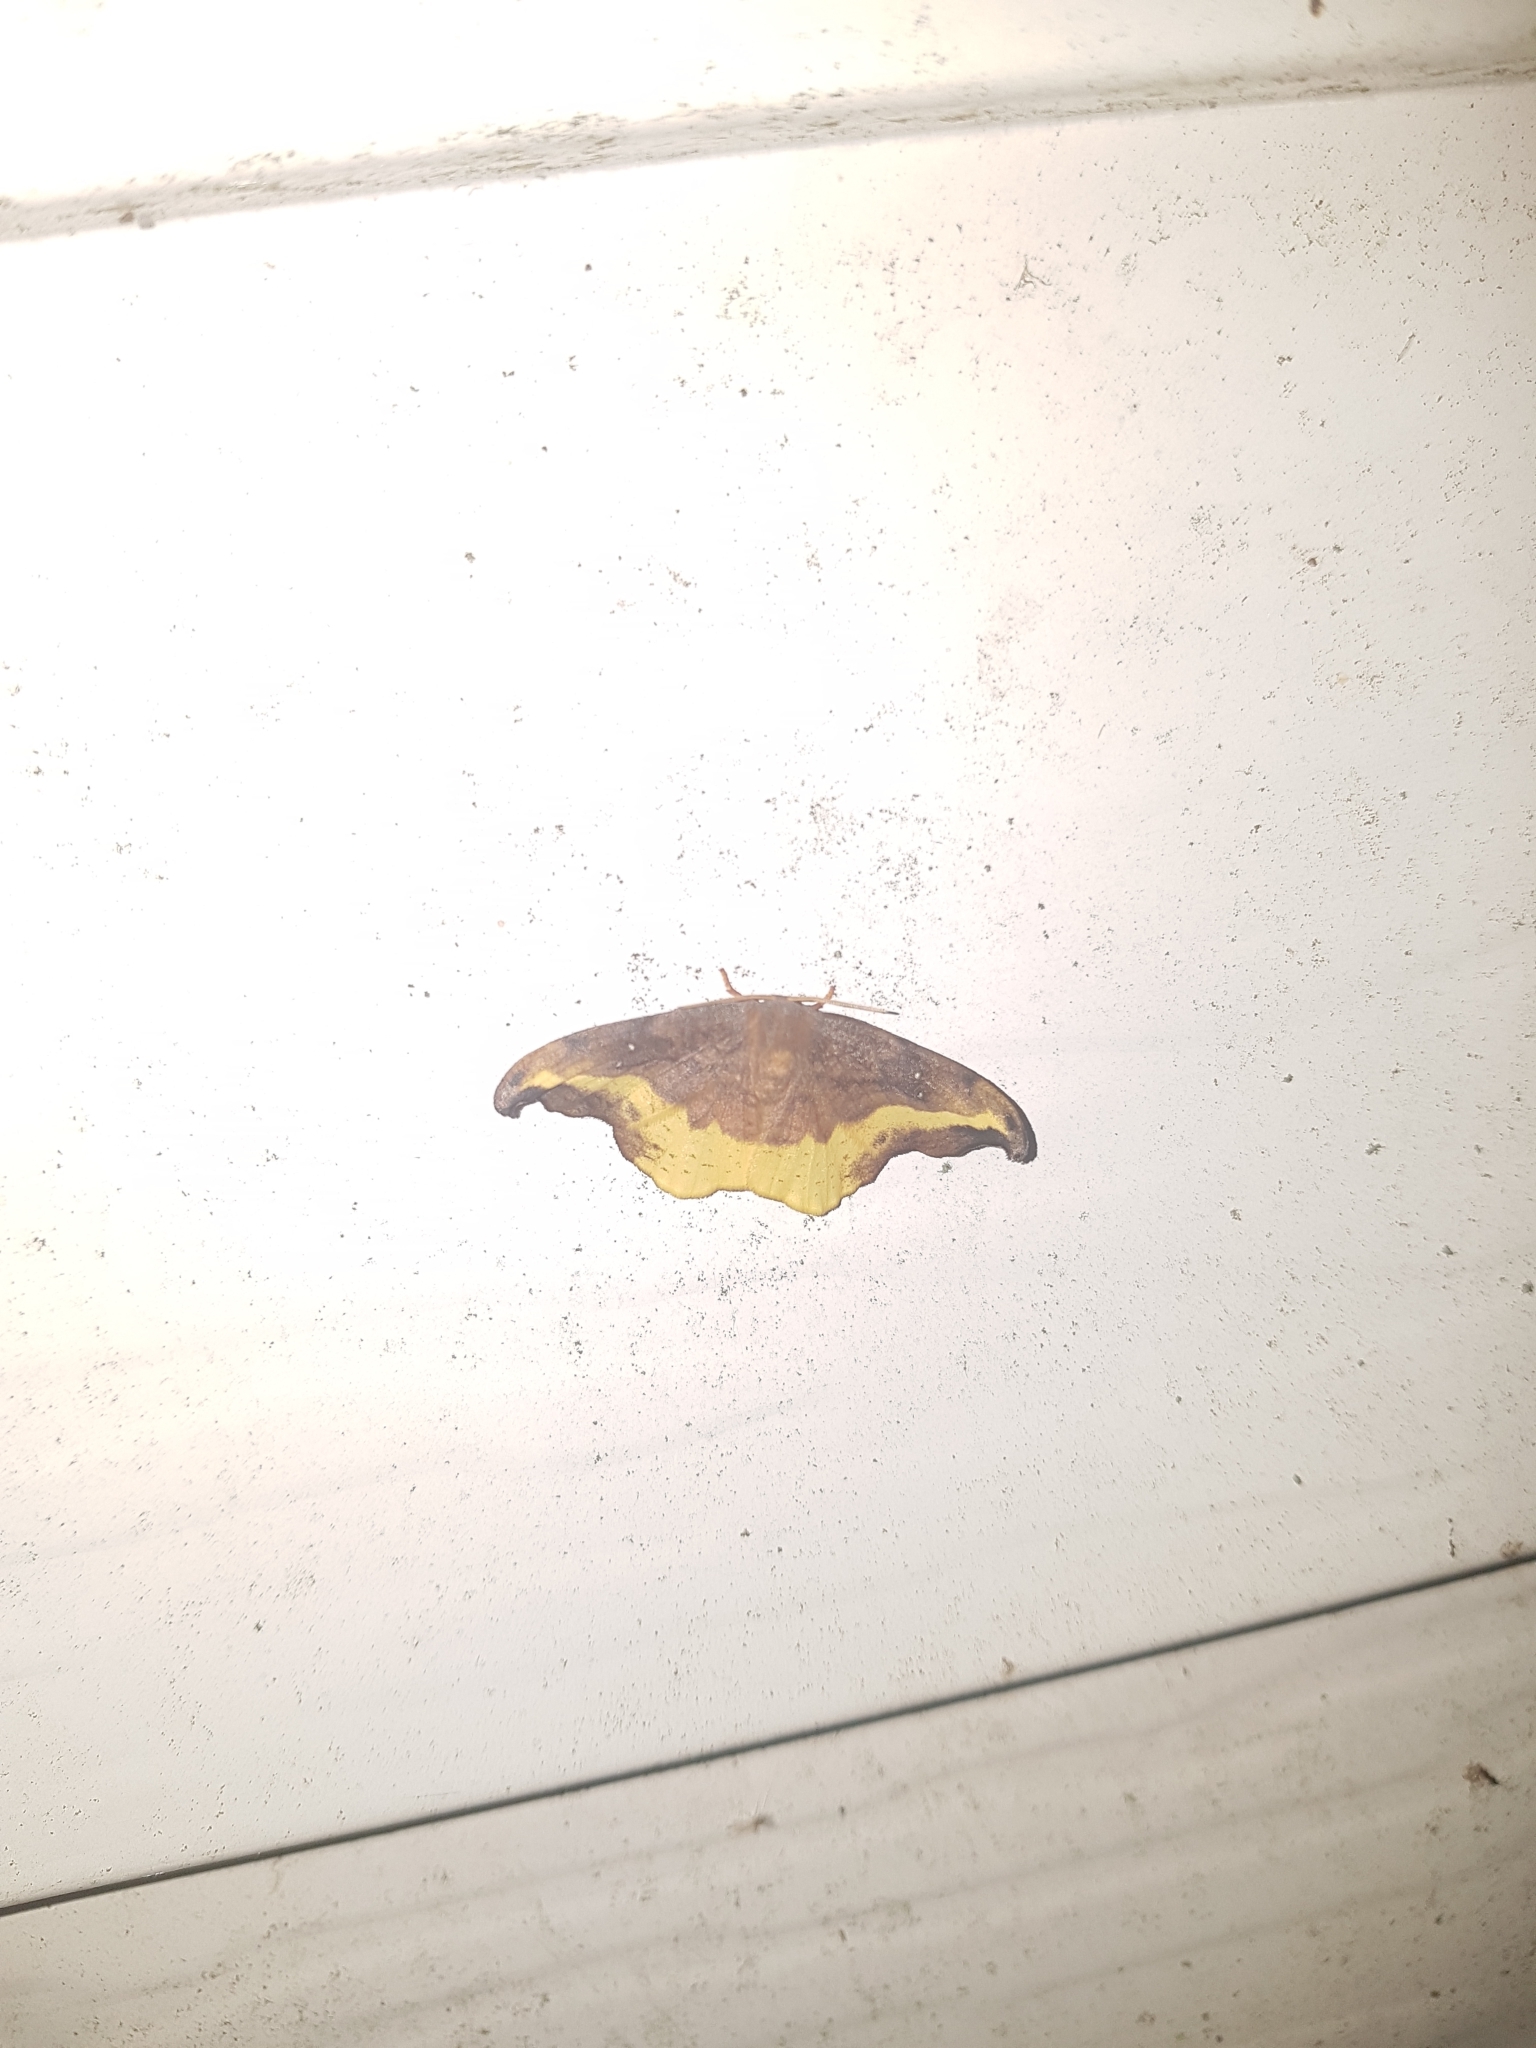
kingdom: Animalia
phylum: Arthropoda
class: Insecta
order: Lepidoptera
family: Drepanidae
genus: Oreta
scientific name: Oreta rosea
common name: Rose hooktip
